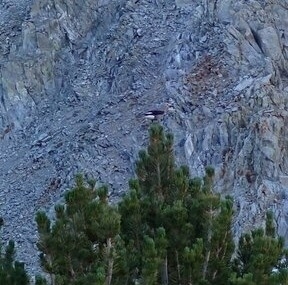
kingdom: Animalia
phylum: Chordata
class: Aves
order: Passeriformes
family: Corvidae
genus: Nucifraga
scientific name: Nucifraga columbiana
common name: Clark's nutcracker
